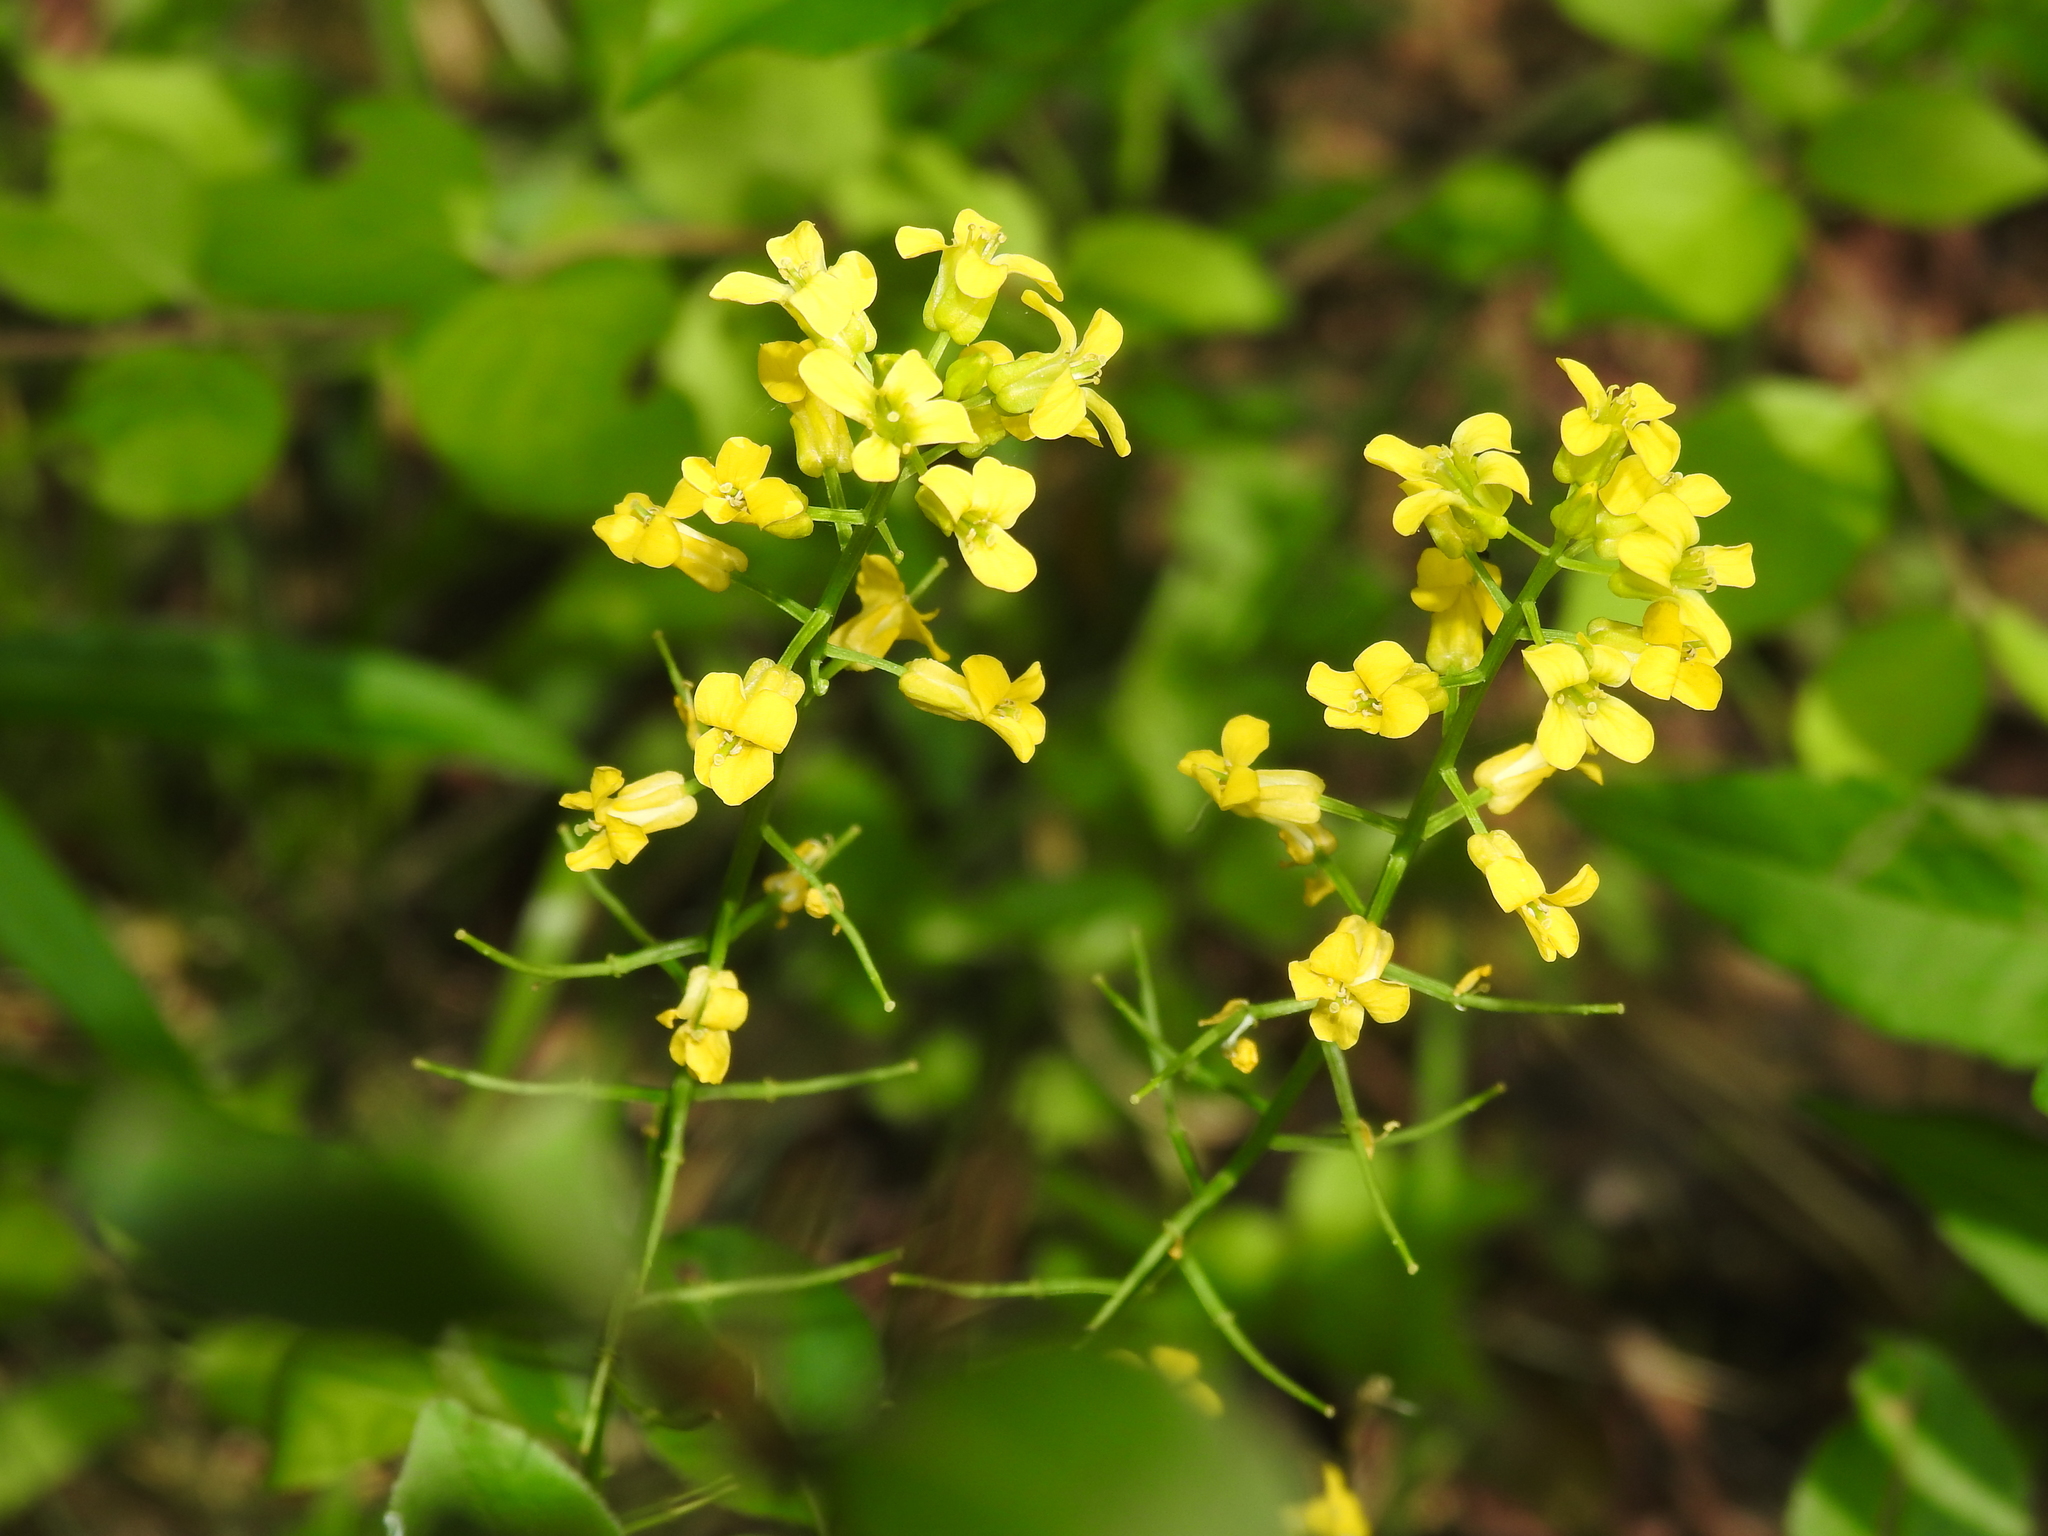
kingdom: Plantae
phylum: Tracheophyta
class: Magnoliopsida
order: Brassicales
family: Brassicaceae
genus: Barbarea
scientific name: Barbarea vulgaris
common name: Cressy-greens
